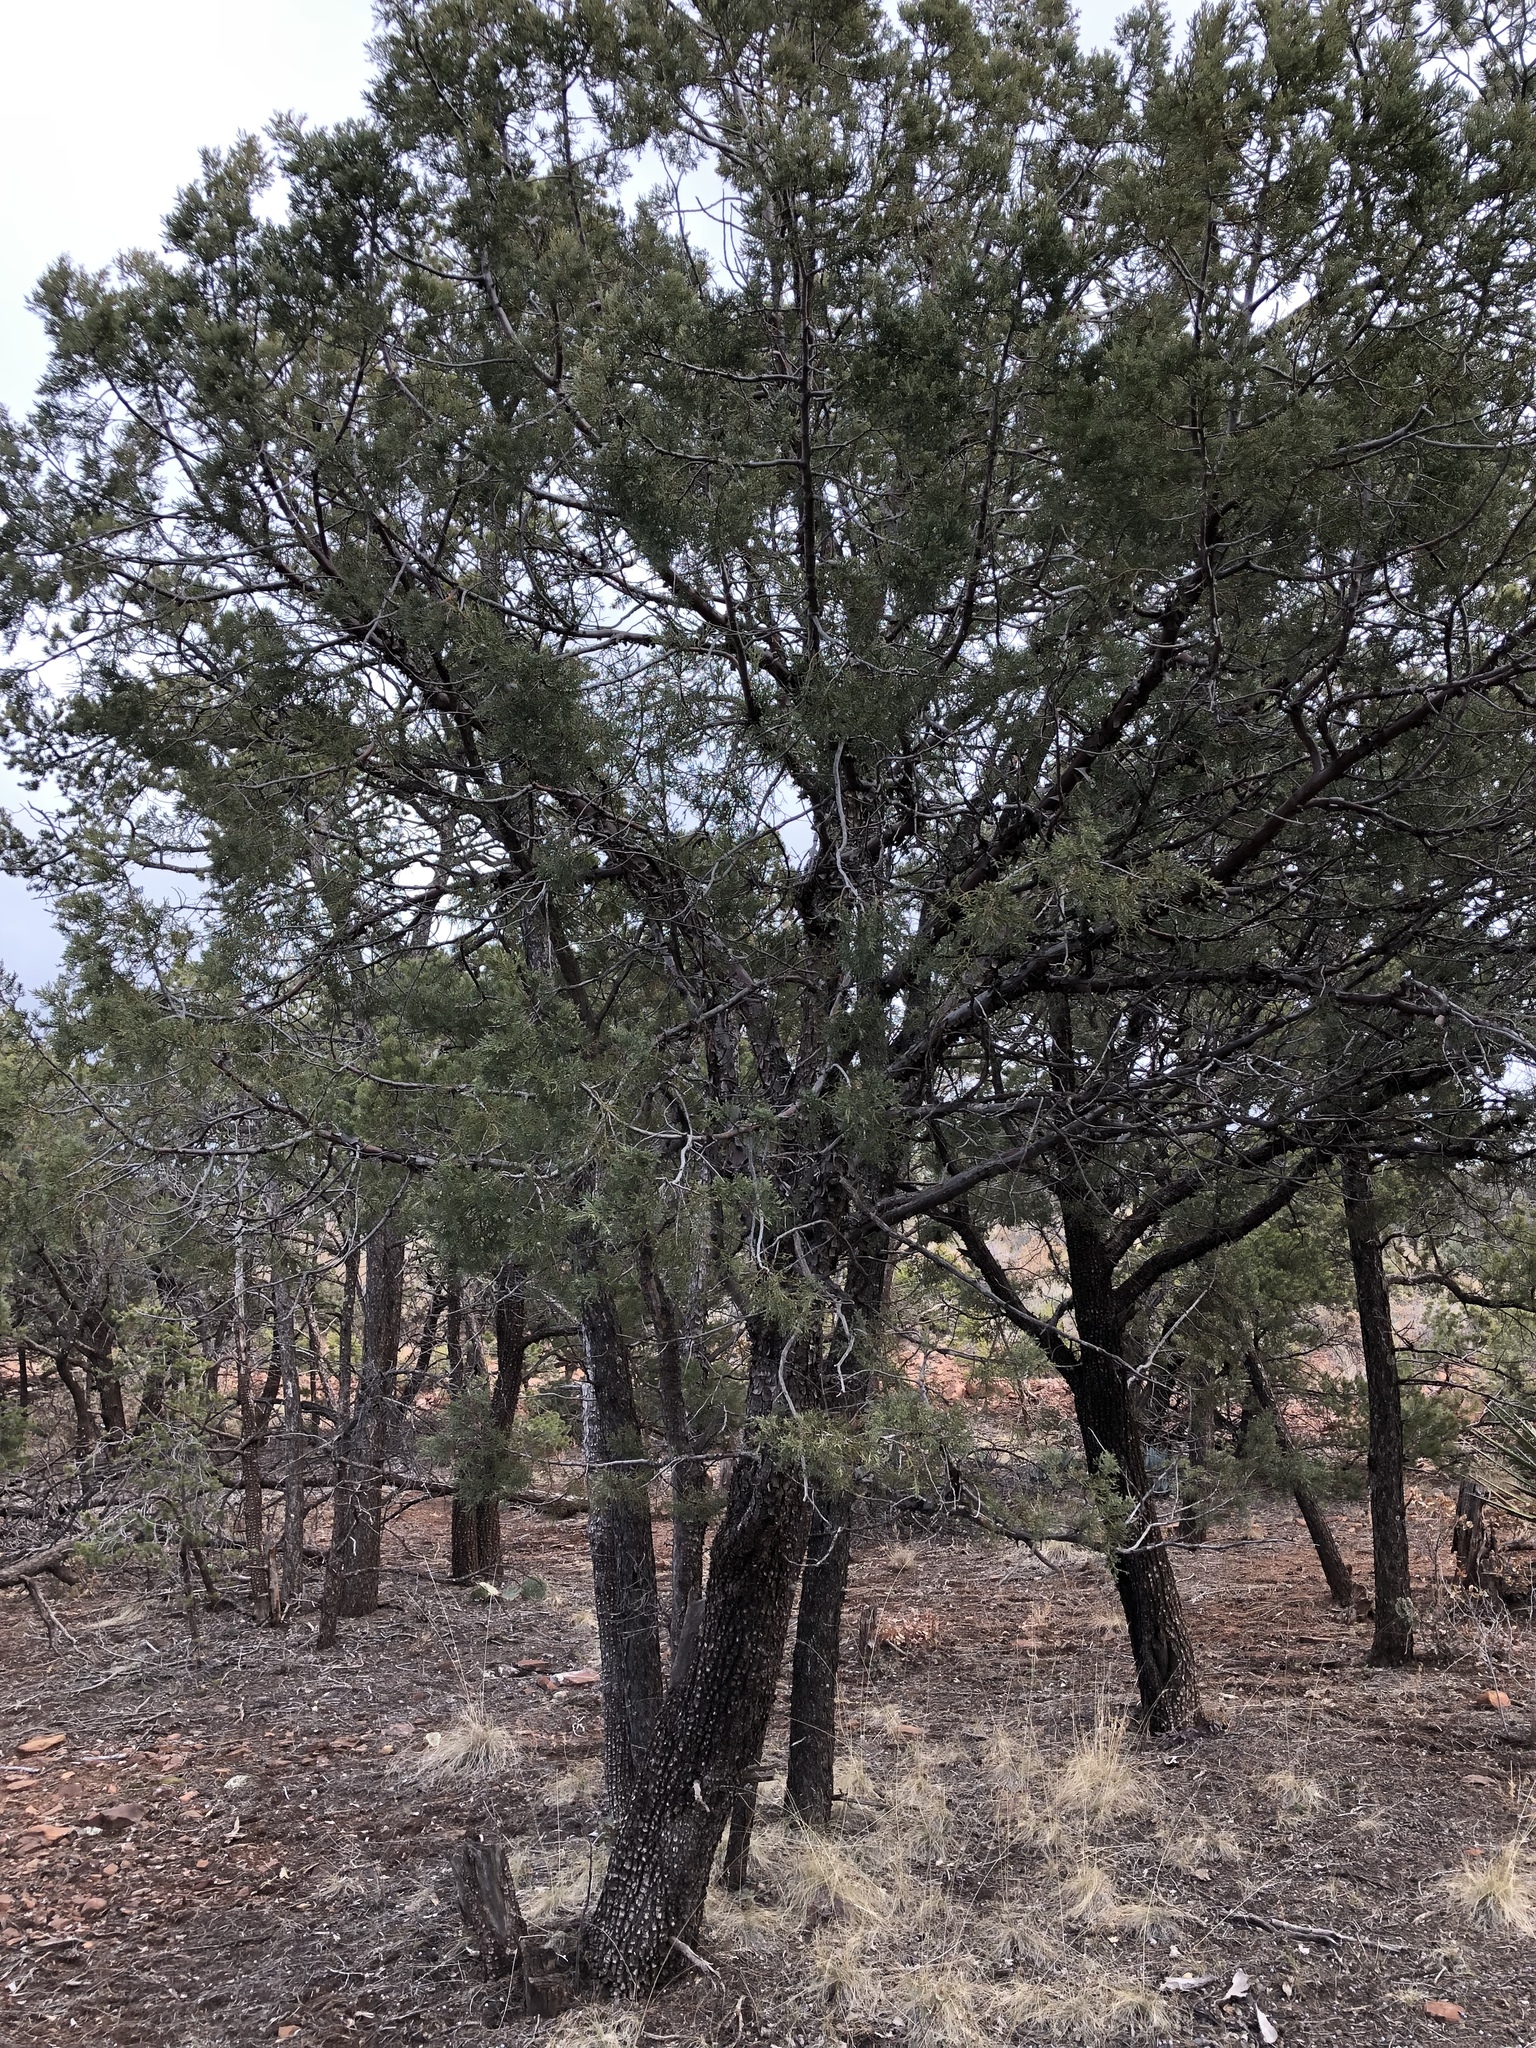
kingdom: Plantae
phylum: Tracheophyta
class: Pinopsida
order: Pinales
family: Cupressaceae
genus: Juniperus
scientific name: Juniperus deppeana
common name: Alligator juniper
